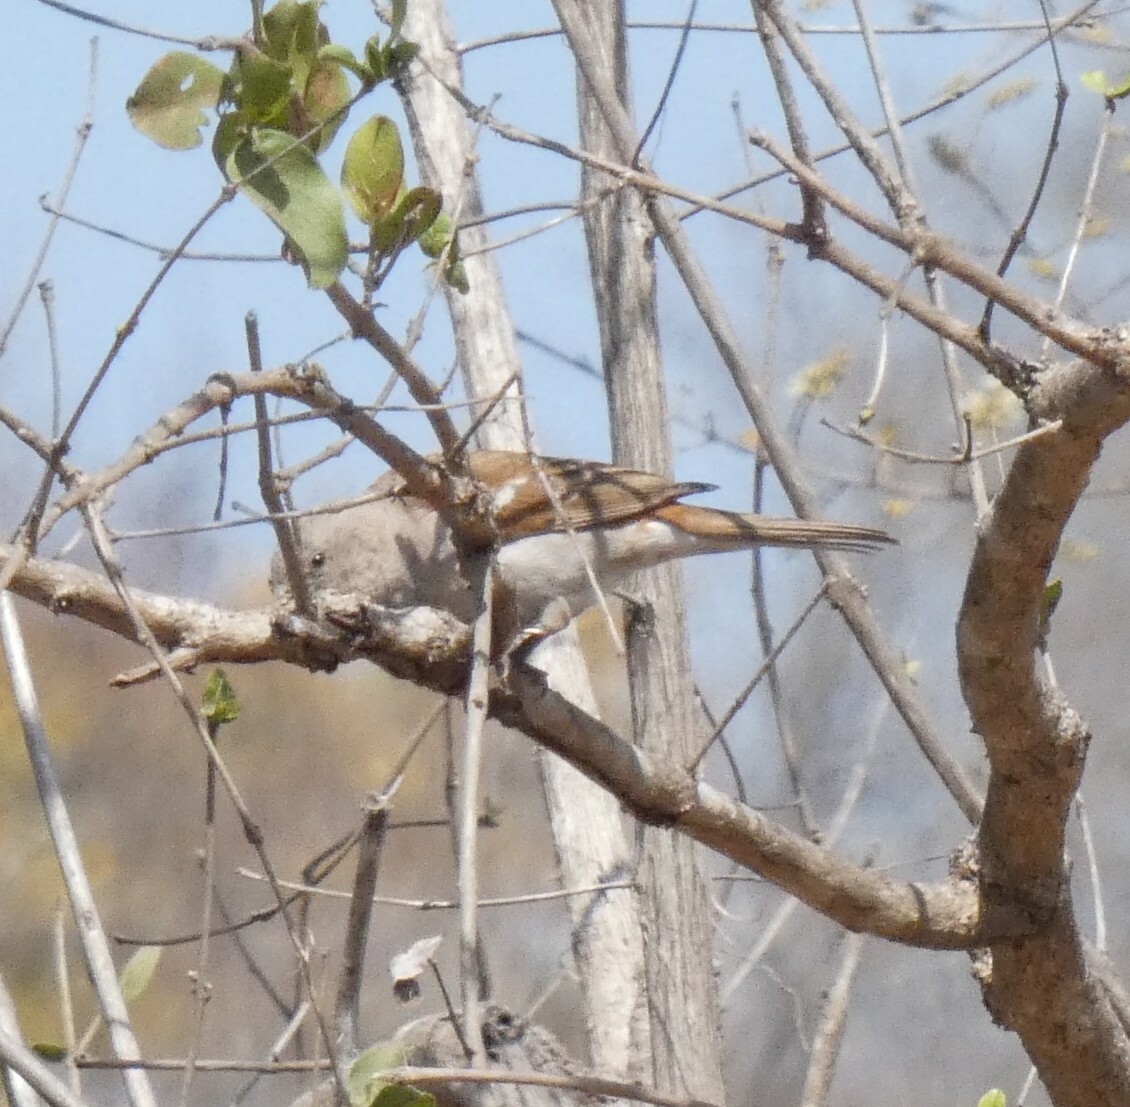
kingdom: Animalia
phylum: Chordata
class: Aves
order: Passeriformes
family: Passeridae
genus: Passer
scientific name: Passer diffusus
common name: Southern grey-headed sparrow
